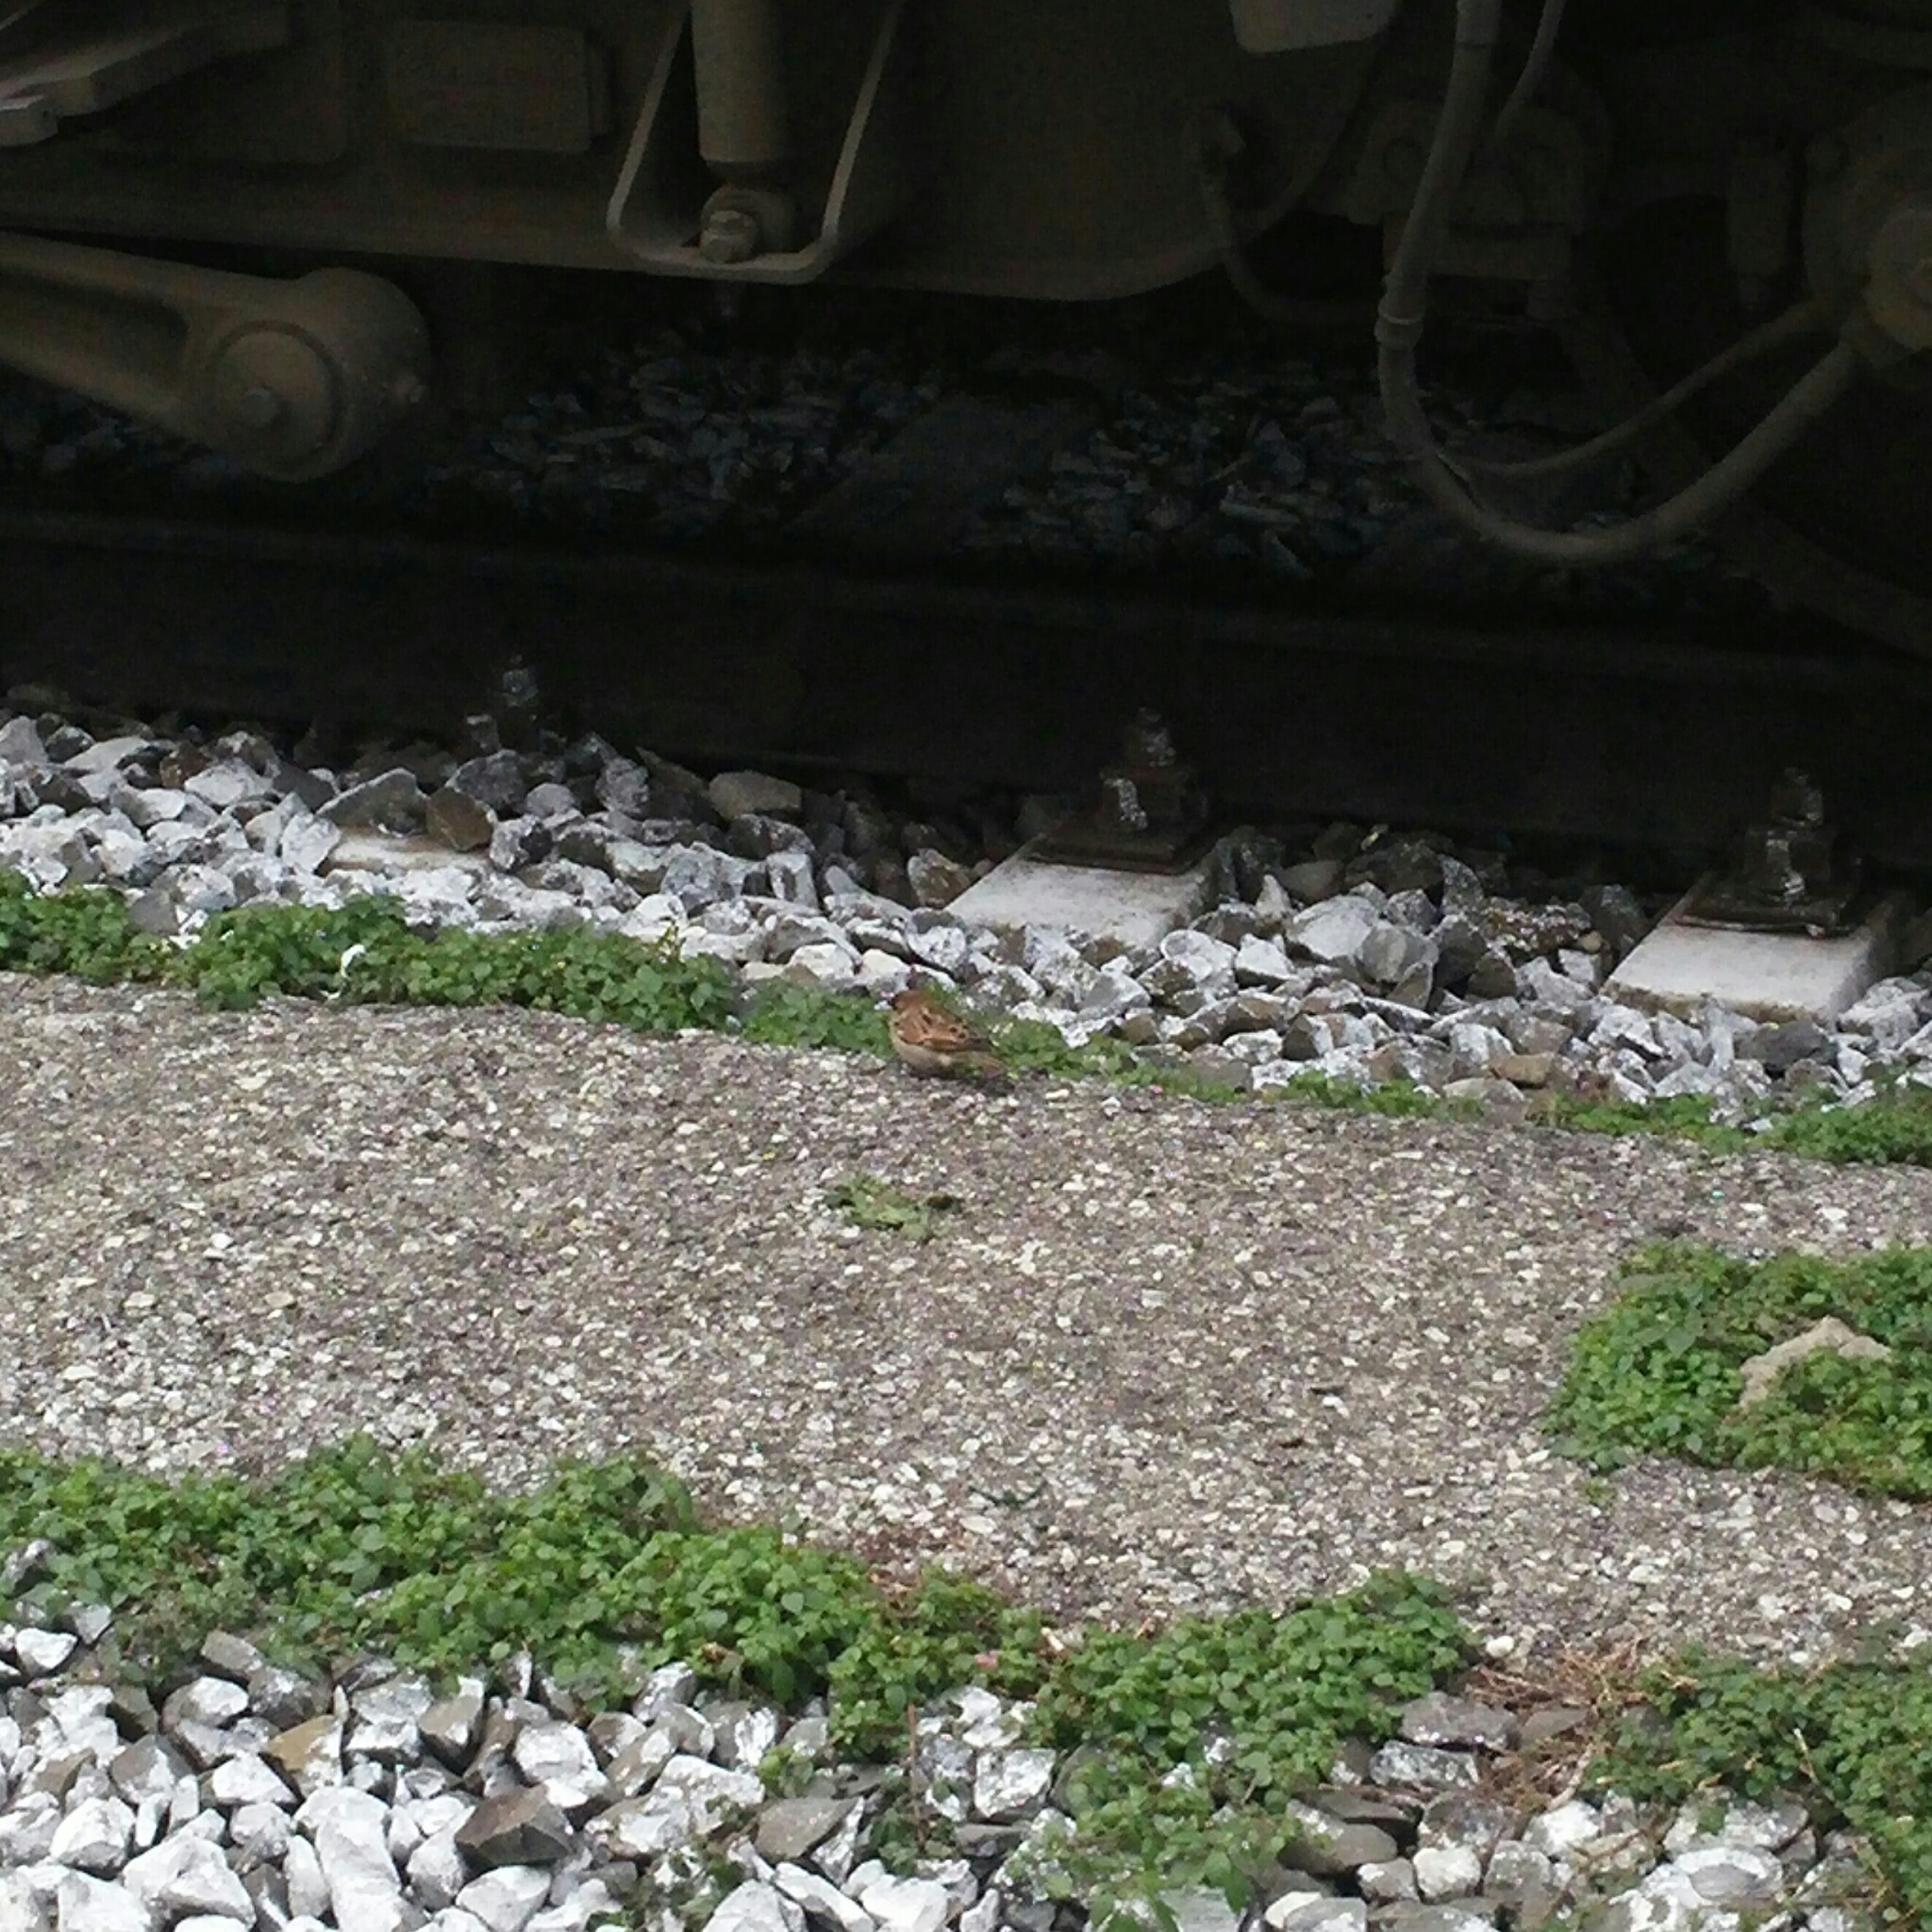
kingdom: Animalia
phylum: Chordata
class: Aves
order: Passeriformes
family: Passeridae
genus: Passer
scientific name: Passer italiae
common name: Italian sparrow
